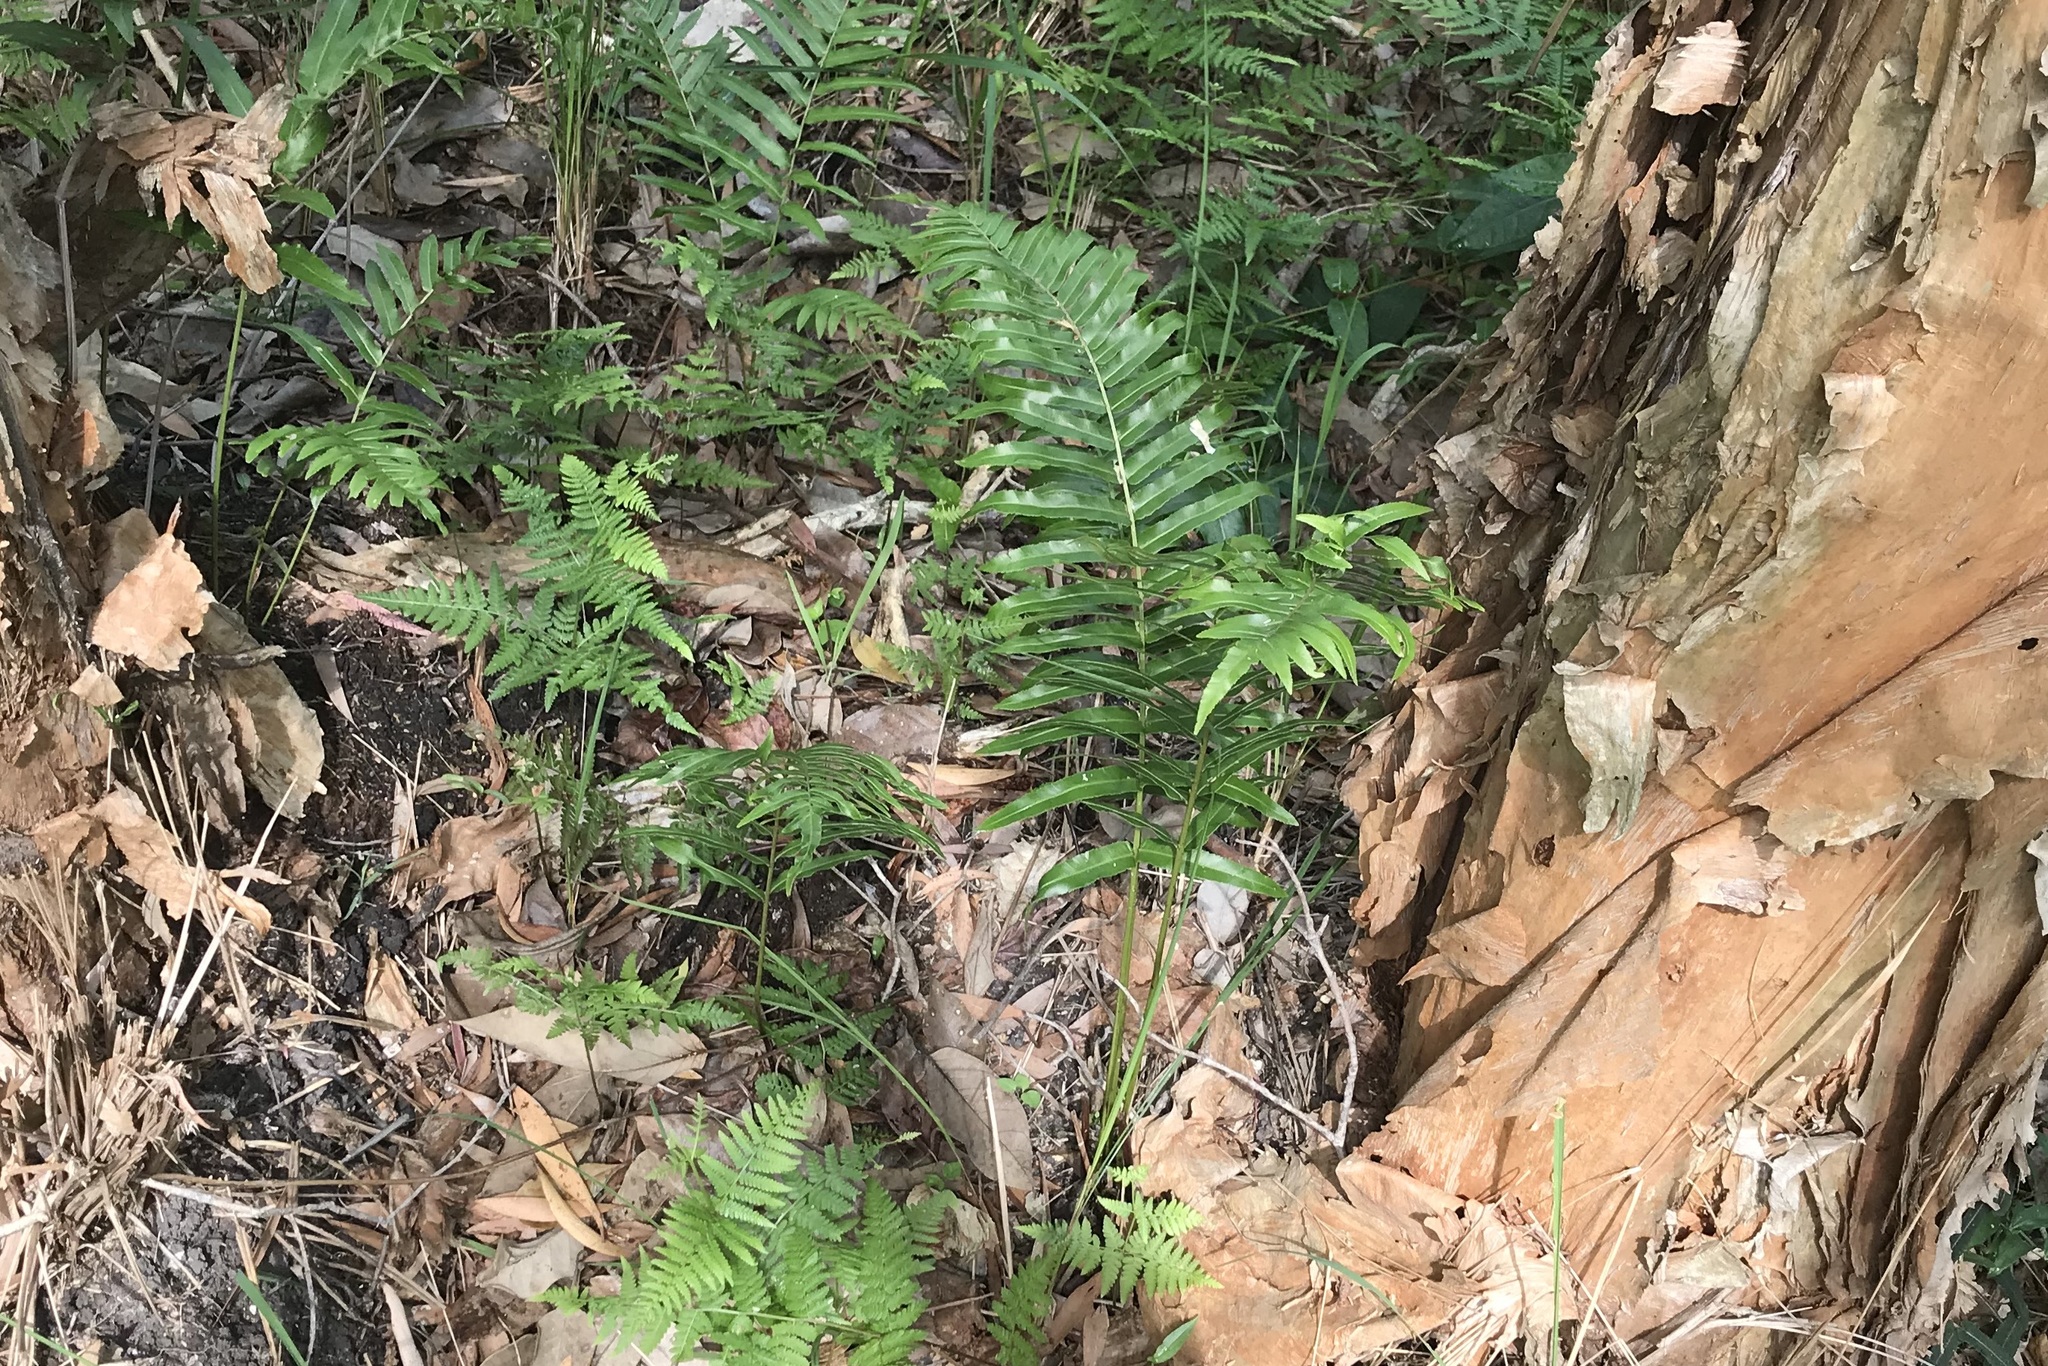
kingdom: Plantae
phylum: Tracheophyta
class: Polypodiopsida
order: Polypodiales
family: Blechnaceae
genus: Telmatoblechnum
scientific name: Telmatoblechnum indicum
